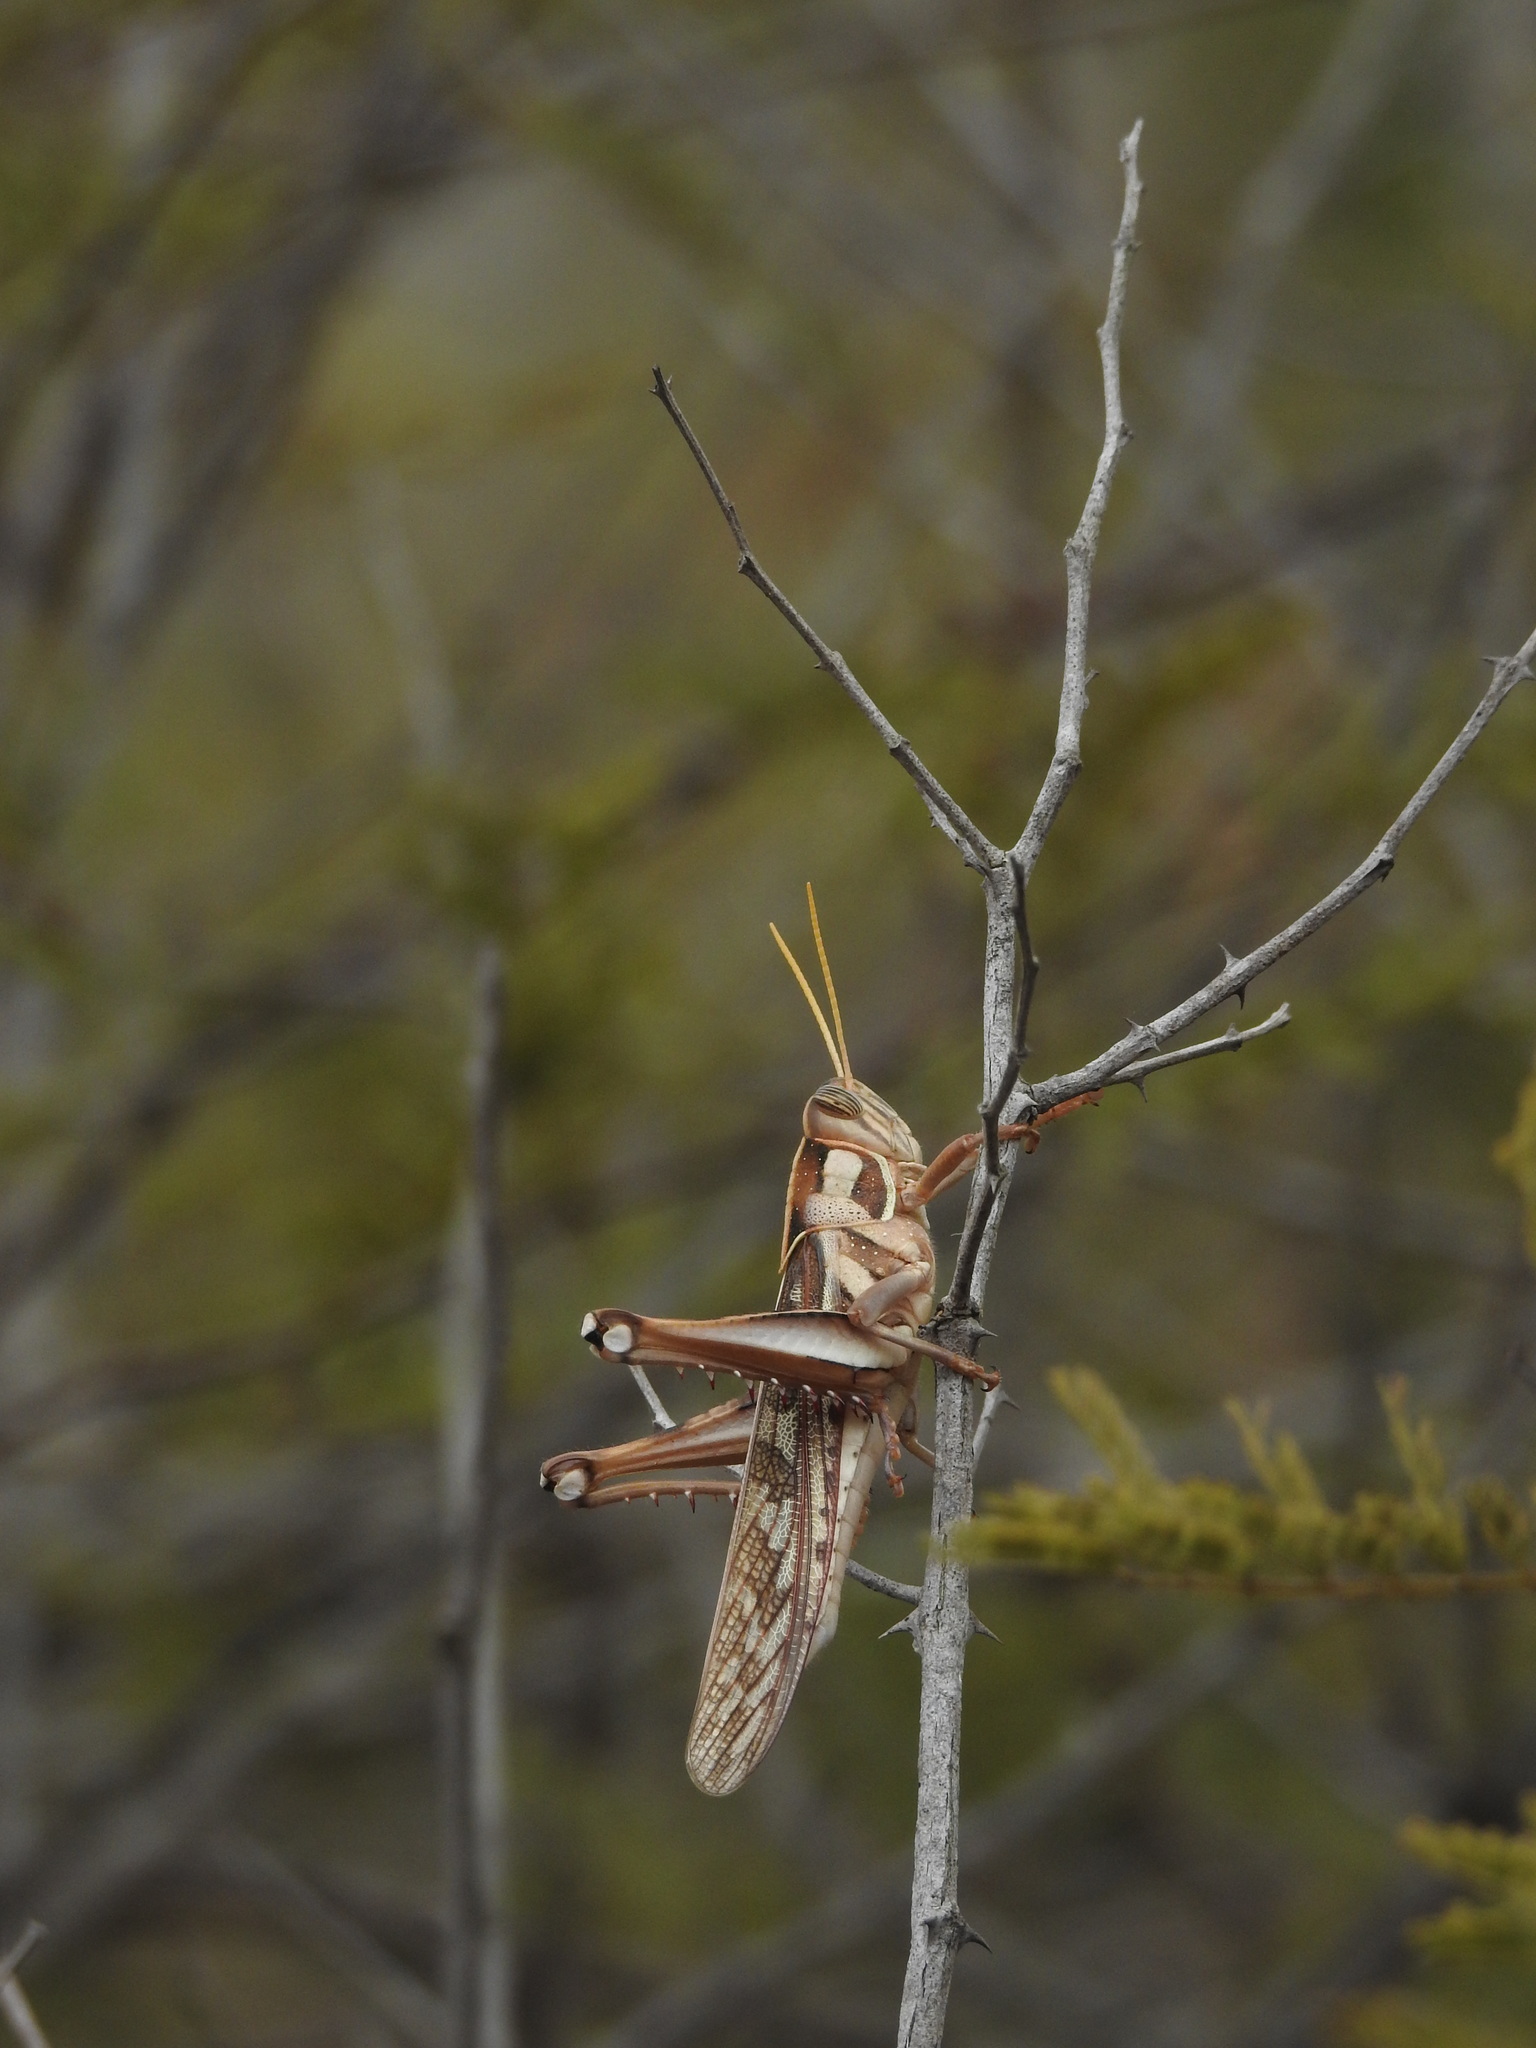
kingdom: Animalia
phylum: Arthropoda
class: Insecta
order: Orthoptera
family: Acrididae
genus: Cyrtacanthacris
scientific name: Cyrtacanthacris tatarica
